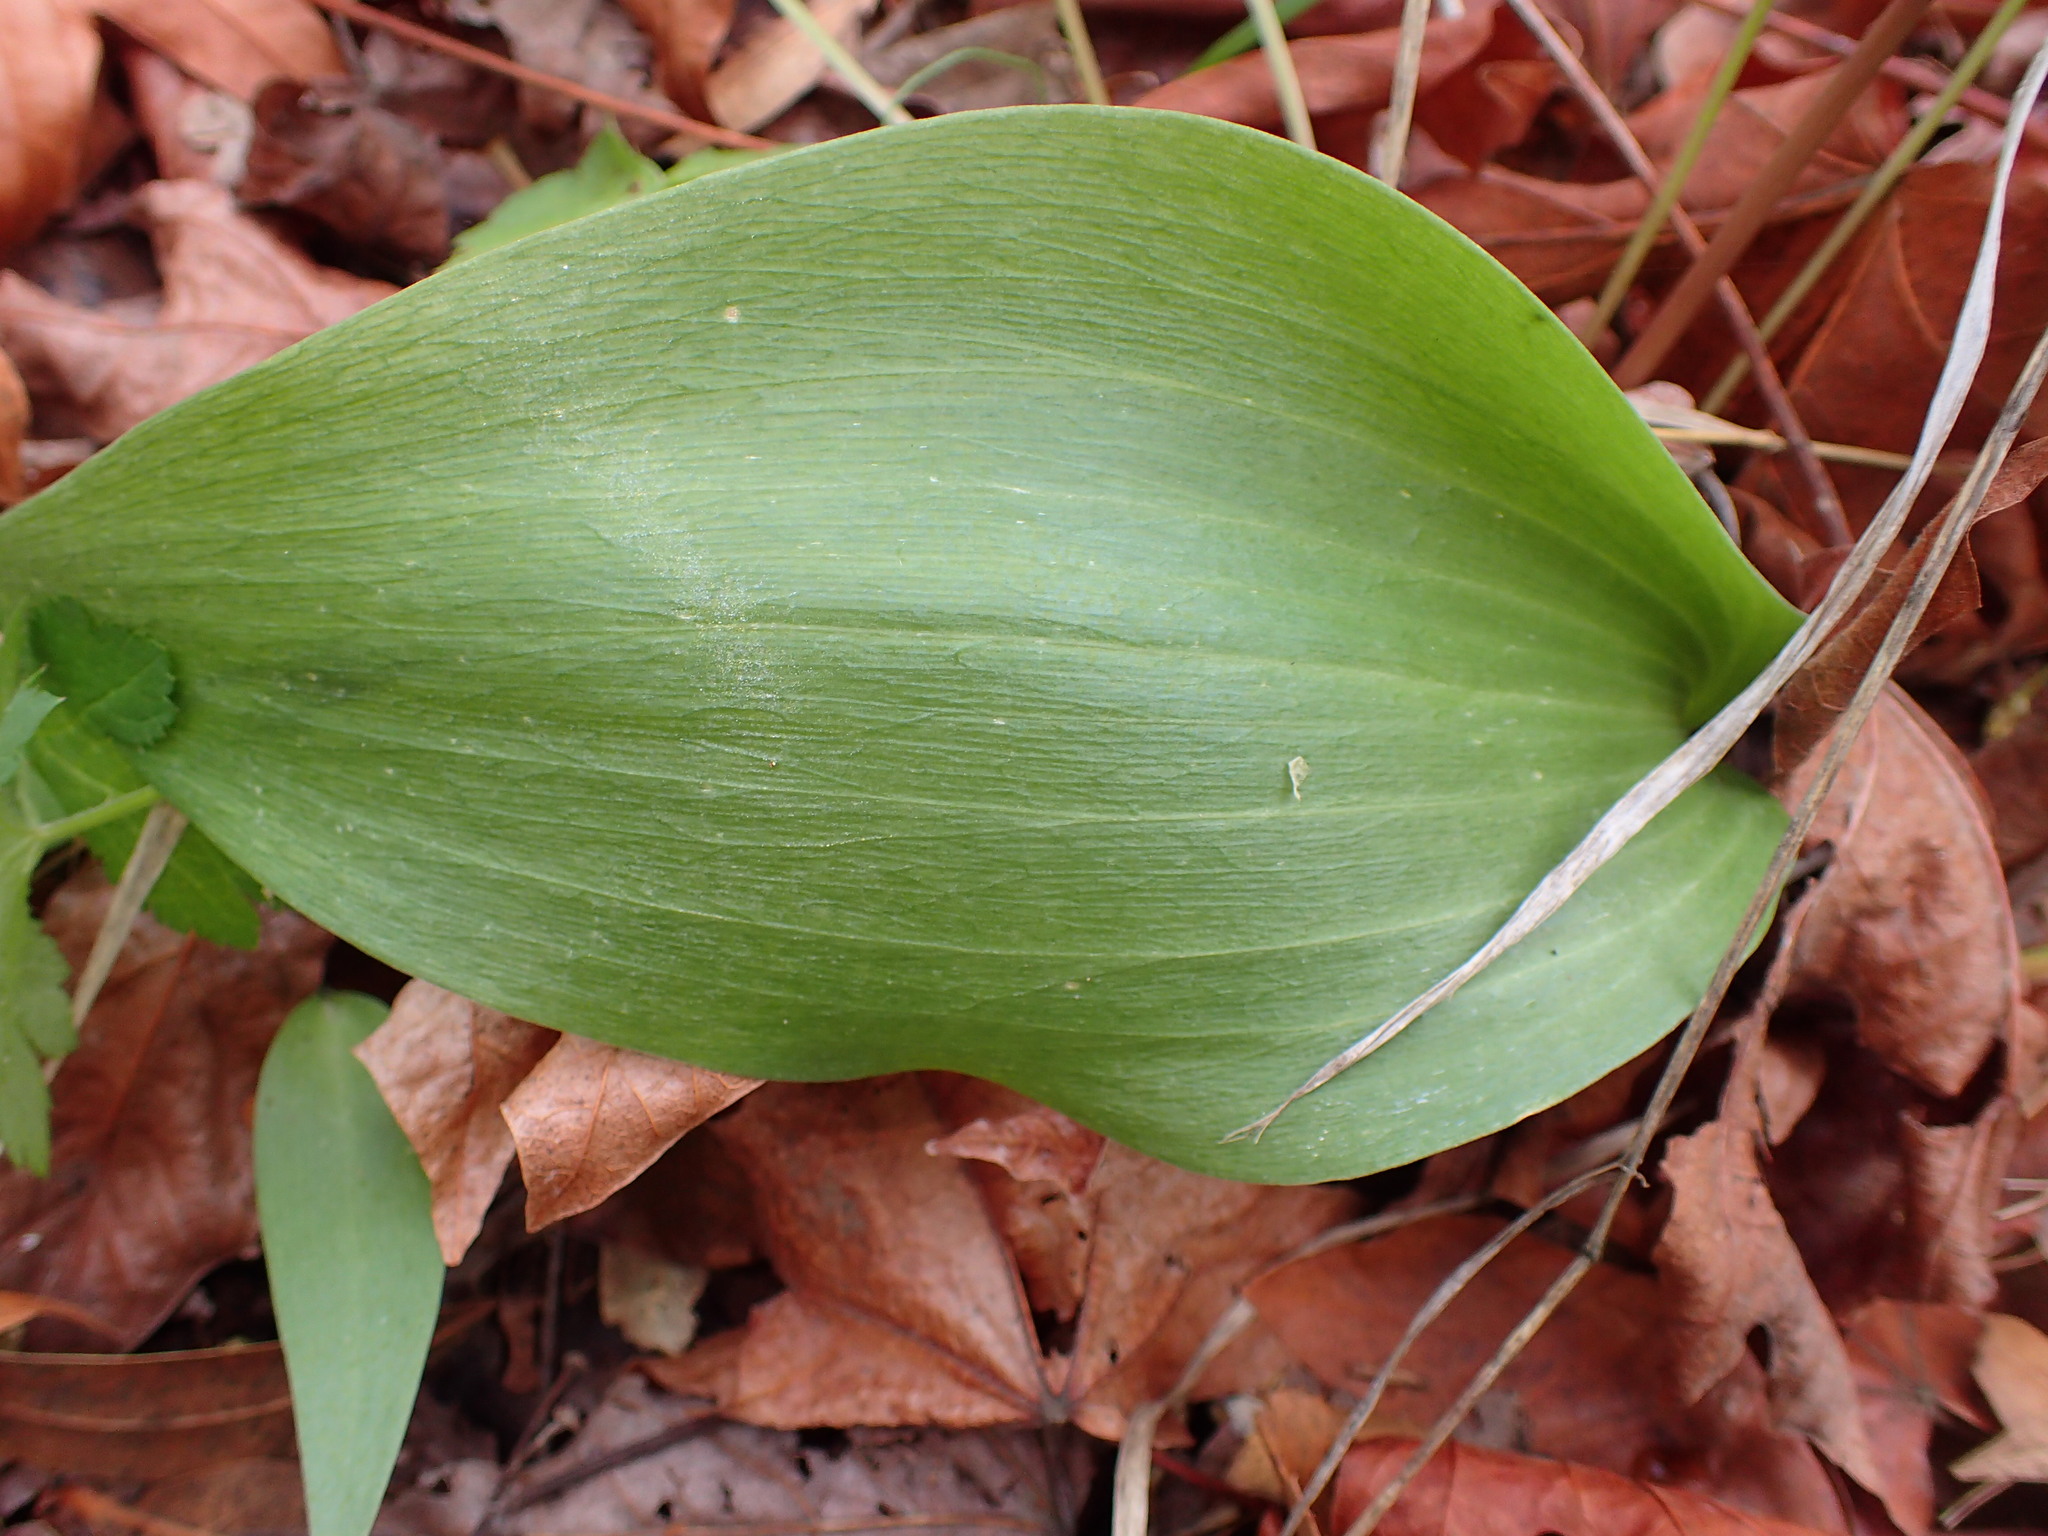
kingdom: Plantae
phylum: Tracheophyta
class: Liliopsida
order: Liliales
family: Liliaceae
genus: Fritillaria
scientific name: Fritillaria ojaiensis
